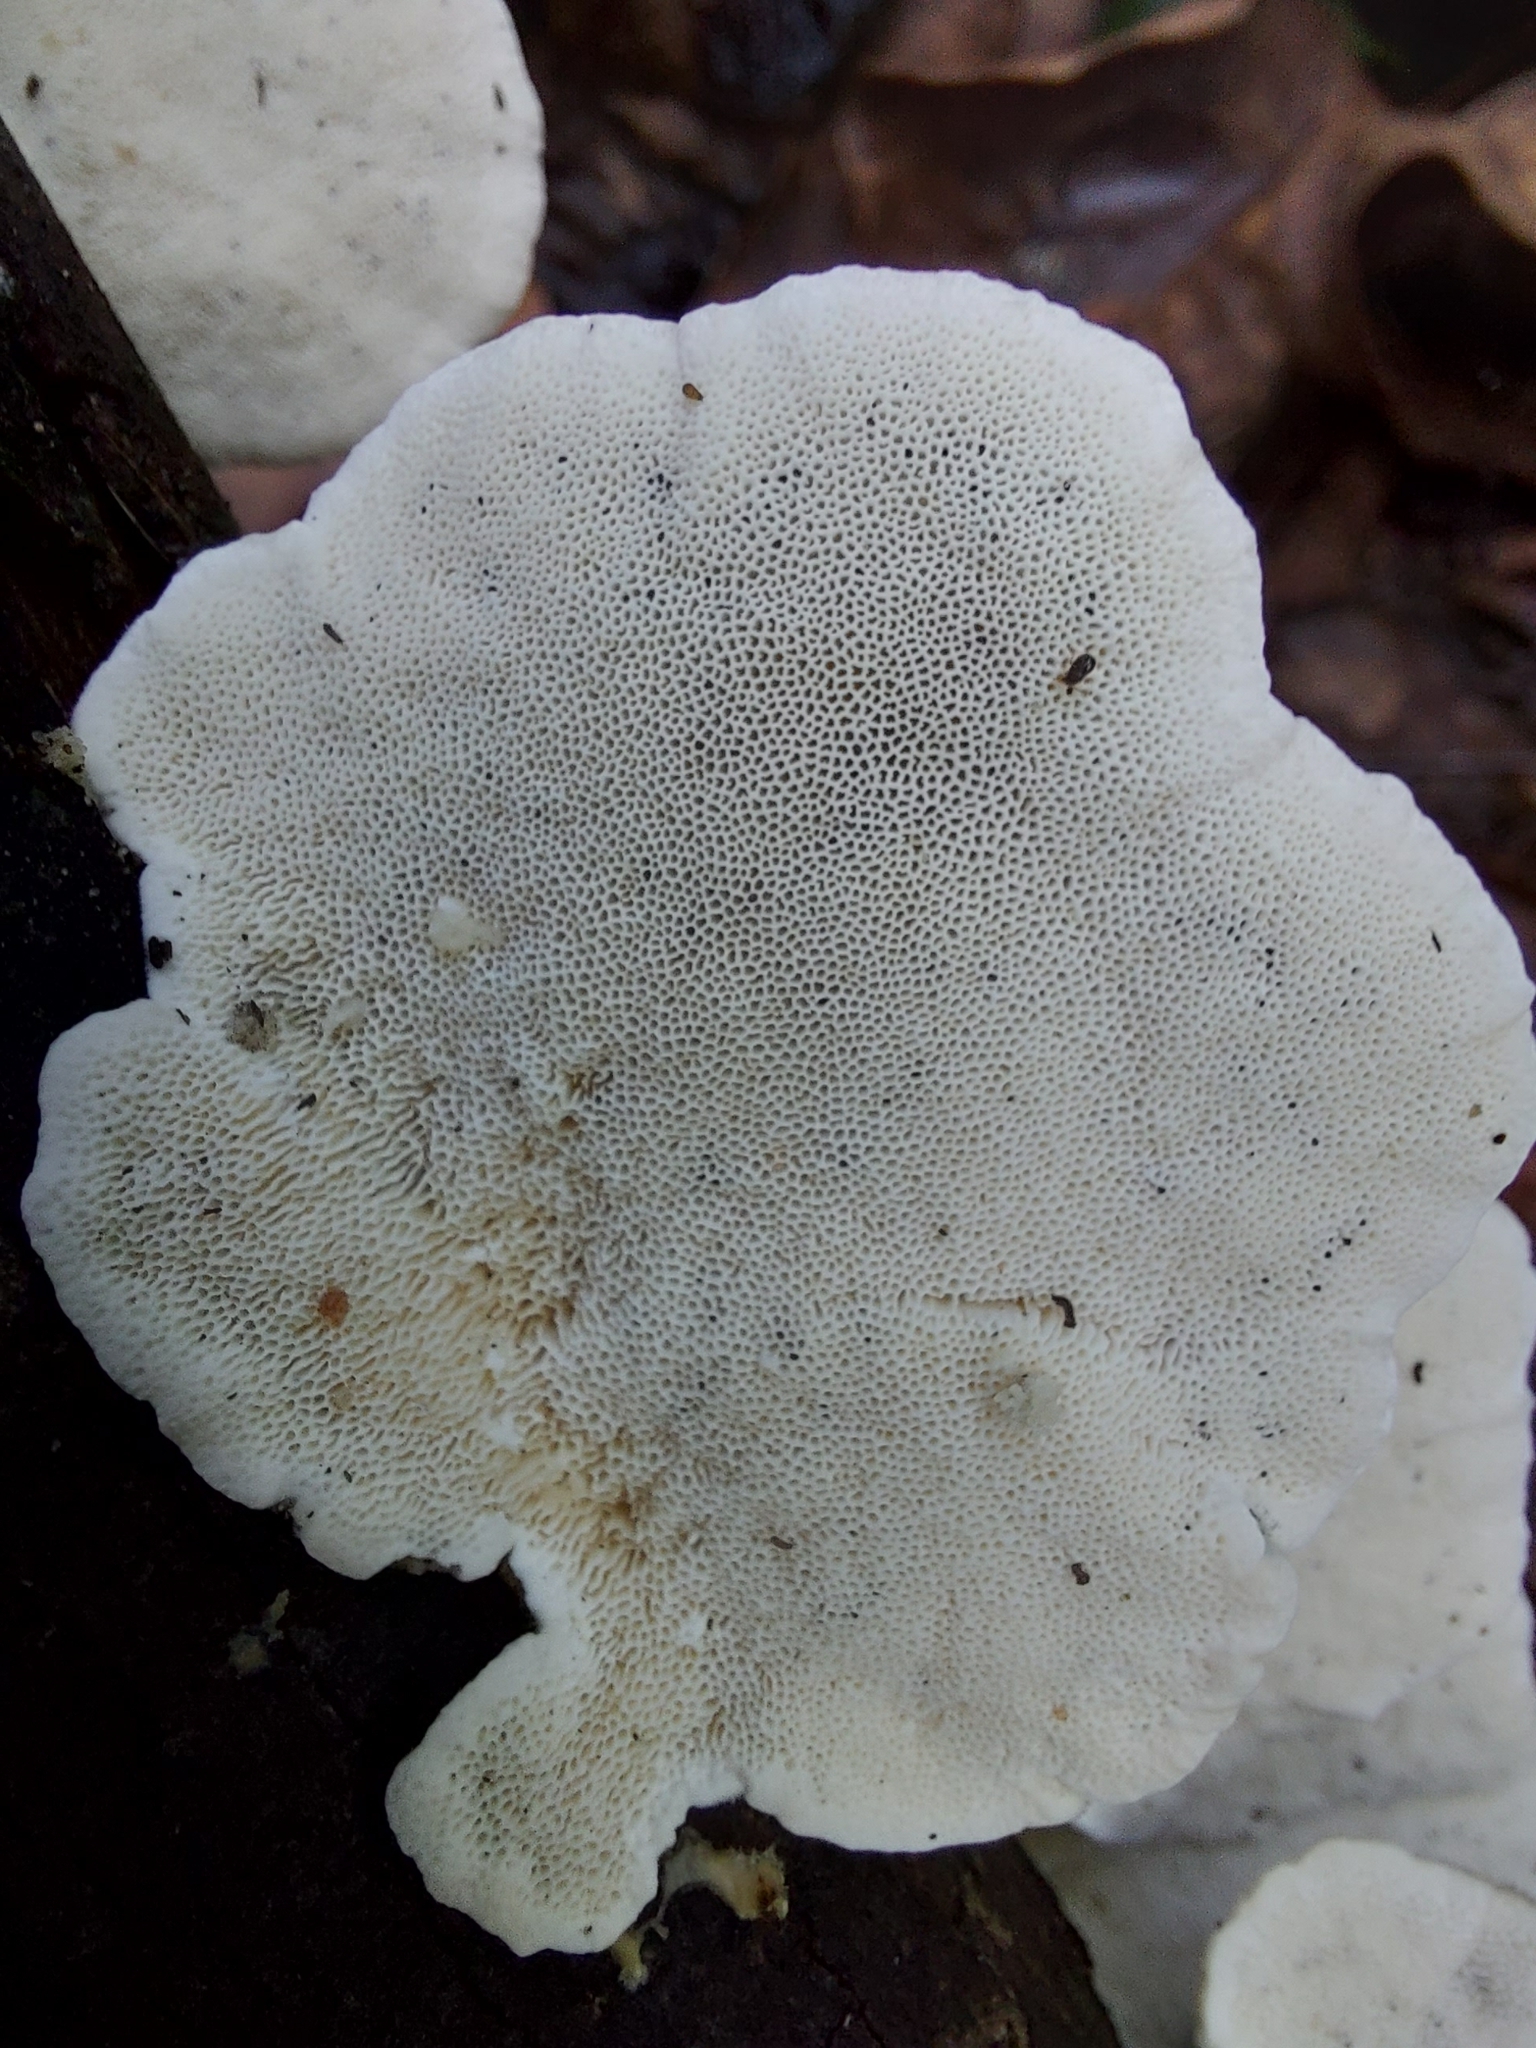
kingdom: Fungi
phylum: Basidiomycota
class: Agaricomycetes
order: Polyporales
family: Polyporaceae
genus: Trametes
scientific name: Trametes ochracea
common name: Ochre bracket
